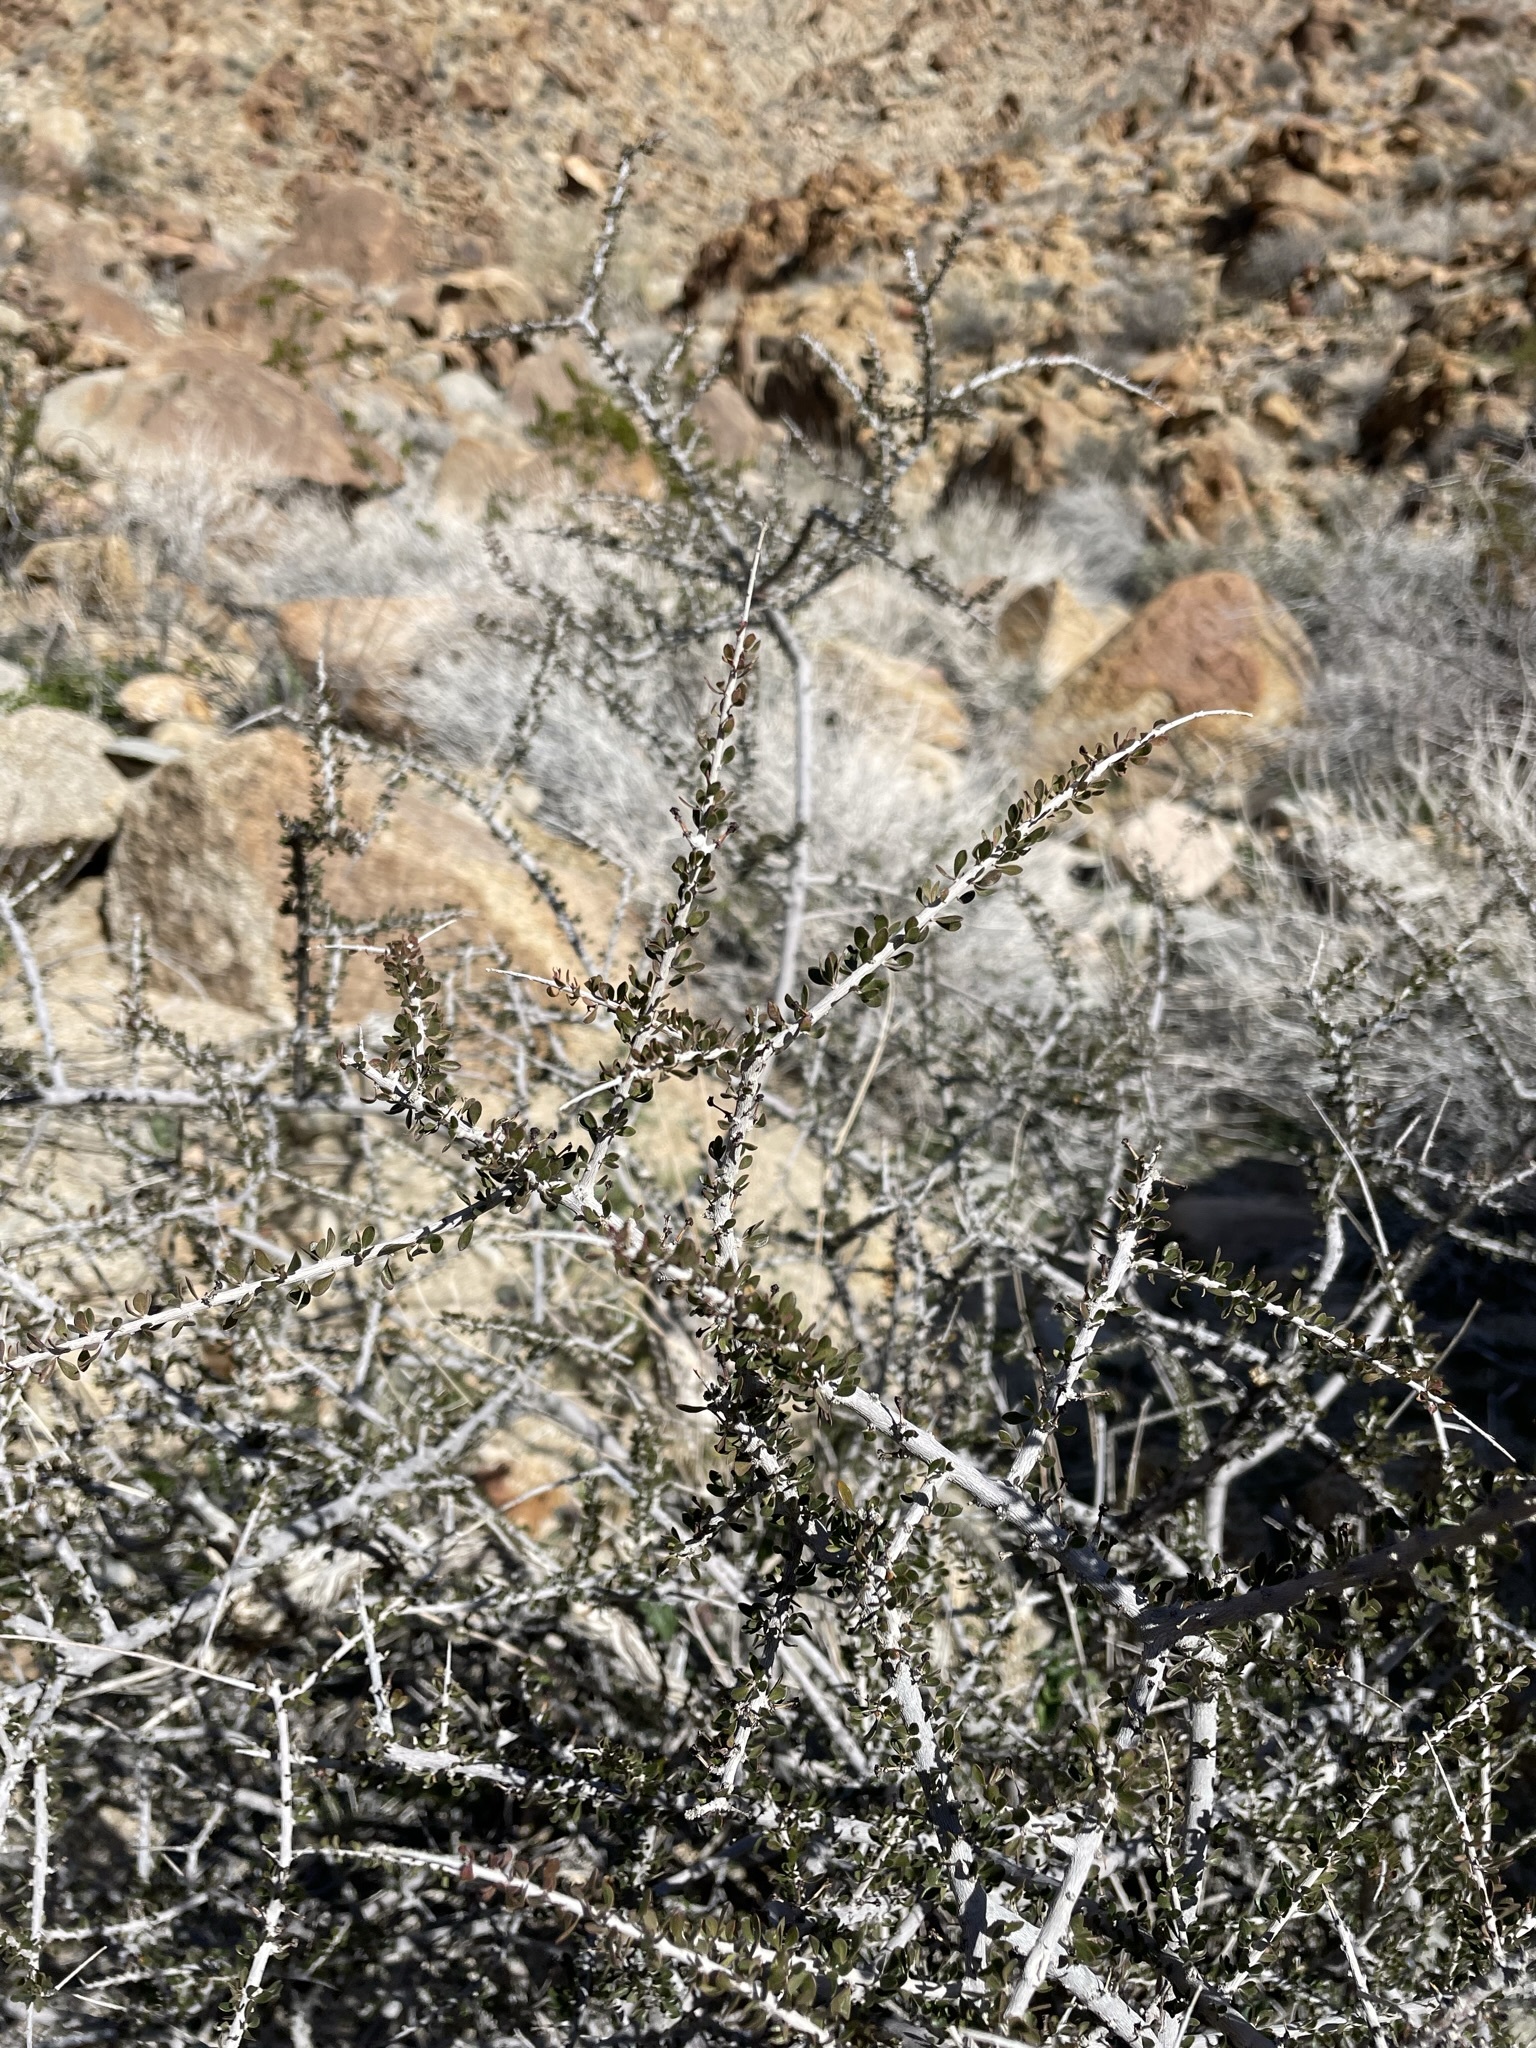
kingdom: Plantae
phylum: Tracheophyta
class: Magnoliopsida
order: Malpighiales
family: Picrodendraceae
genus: Tetracoccus
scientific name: Tetracoccus hallii
